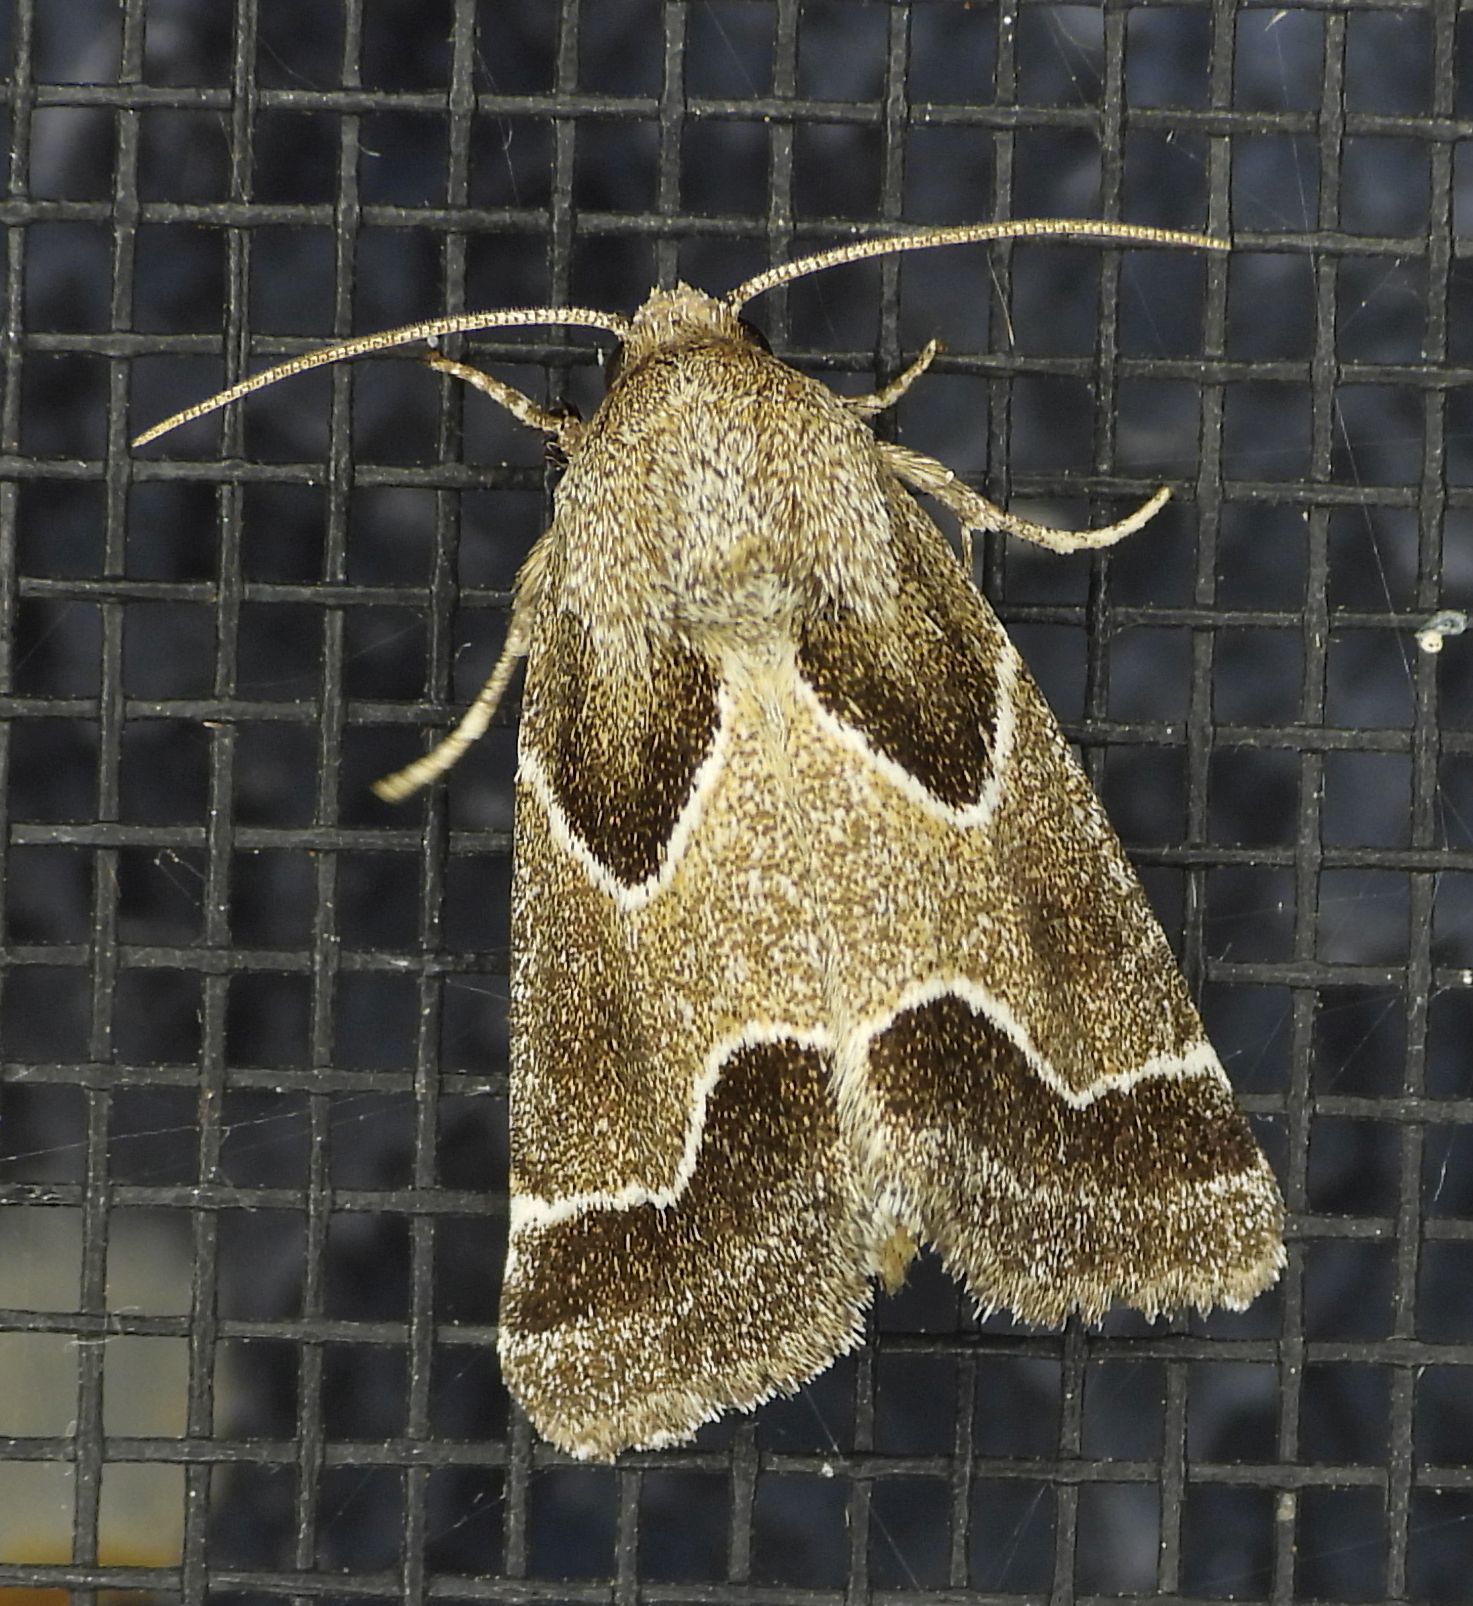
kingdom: Animalia
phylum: Arthropoda
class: Insecta
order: Lepidoptera
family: Noctuidae
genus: Schinia
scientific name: Schinia rivulosa
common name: Scarce meal-moth
